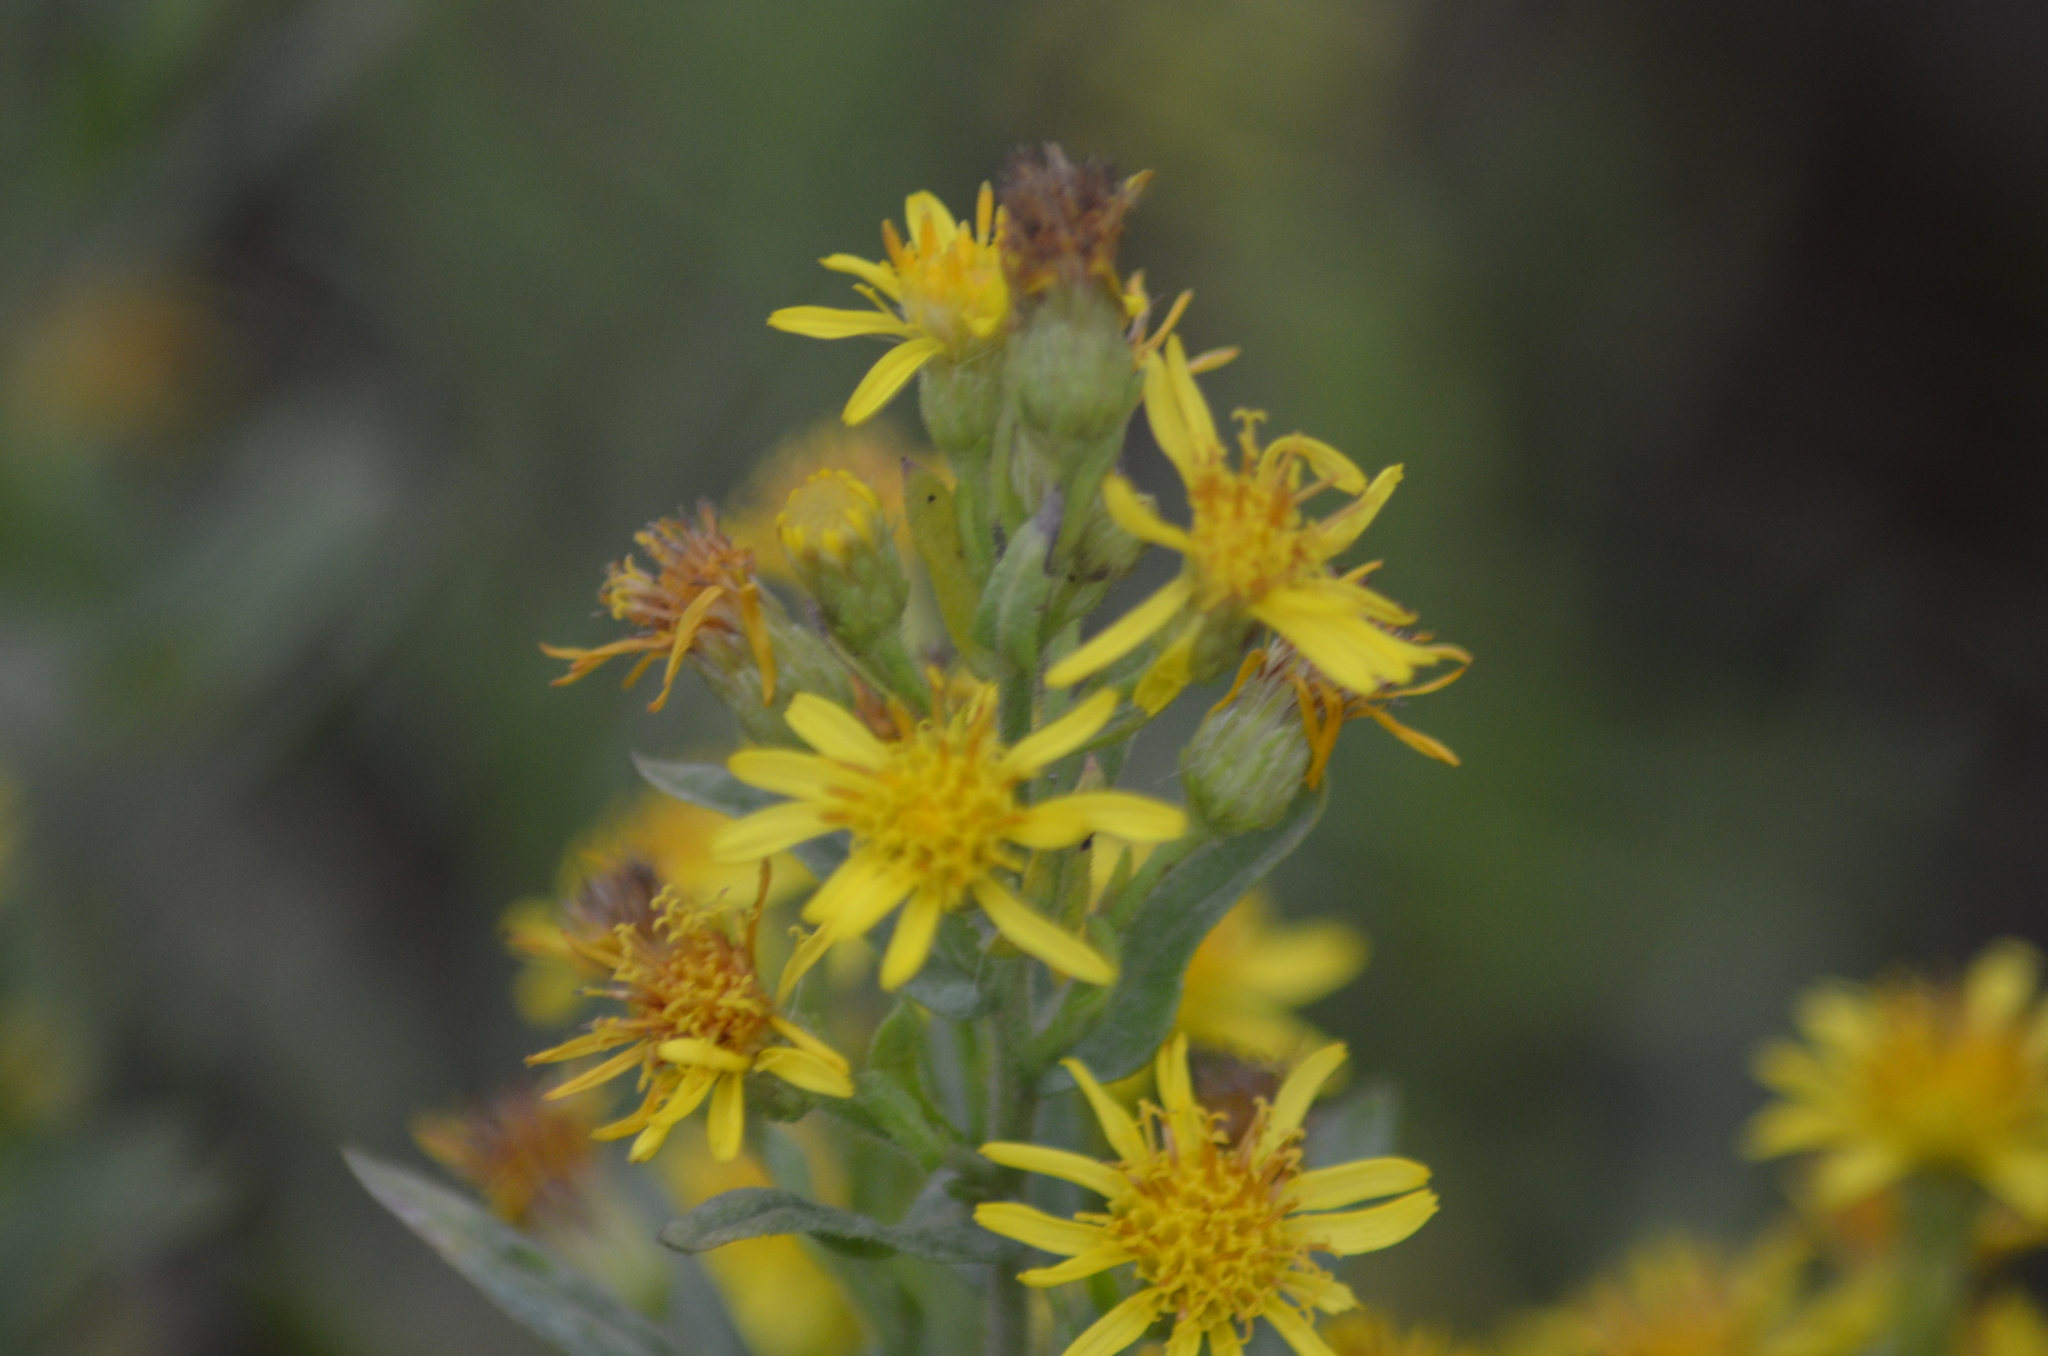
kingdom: Plantae
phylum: Tracheophyta
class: Magnoliopsida
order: Asterales
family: Asteraceae
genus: Dittrichia
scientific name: Dittrichia viscosa
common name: Woody fleabane
